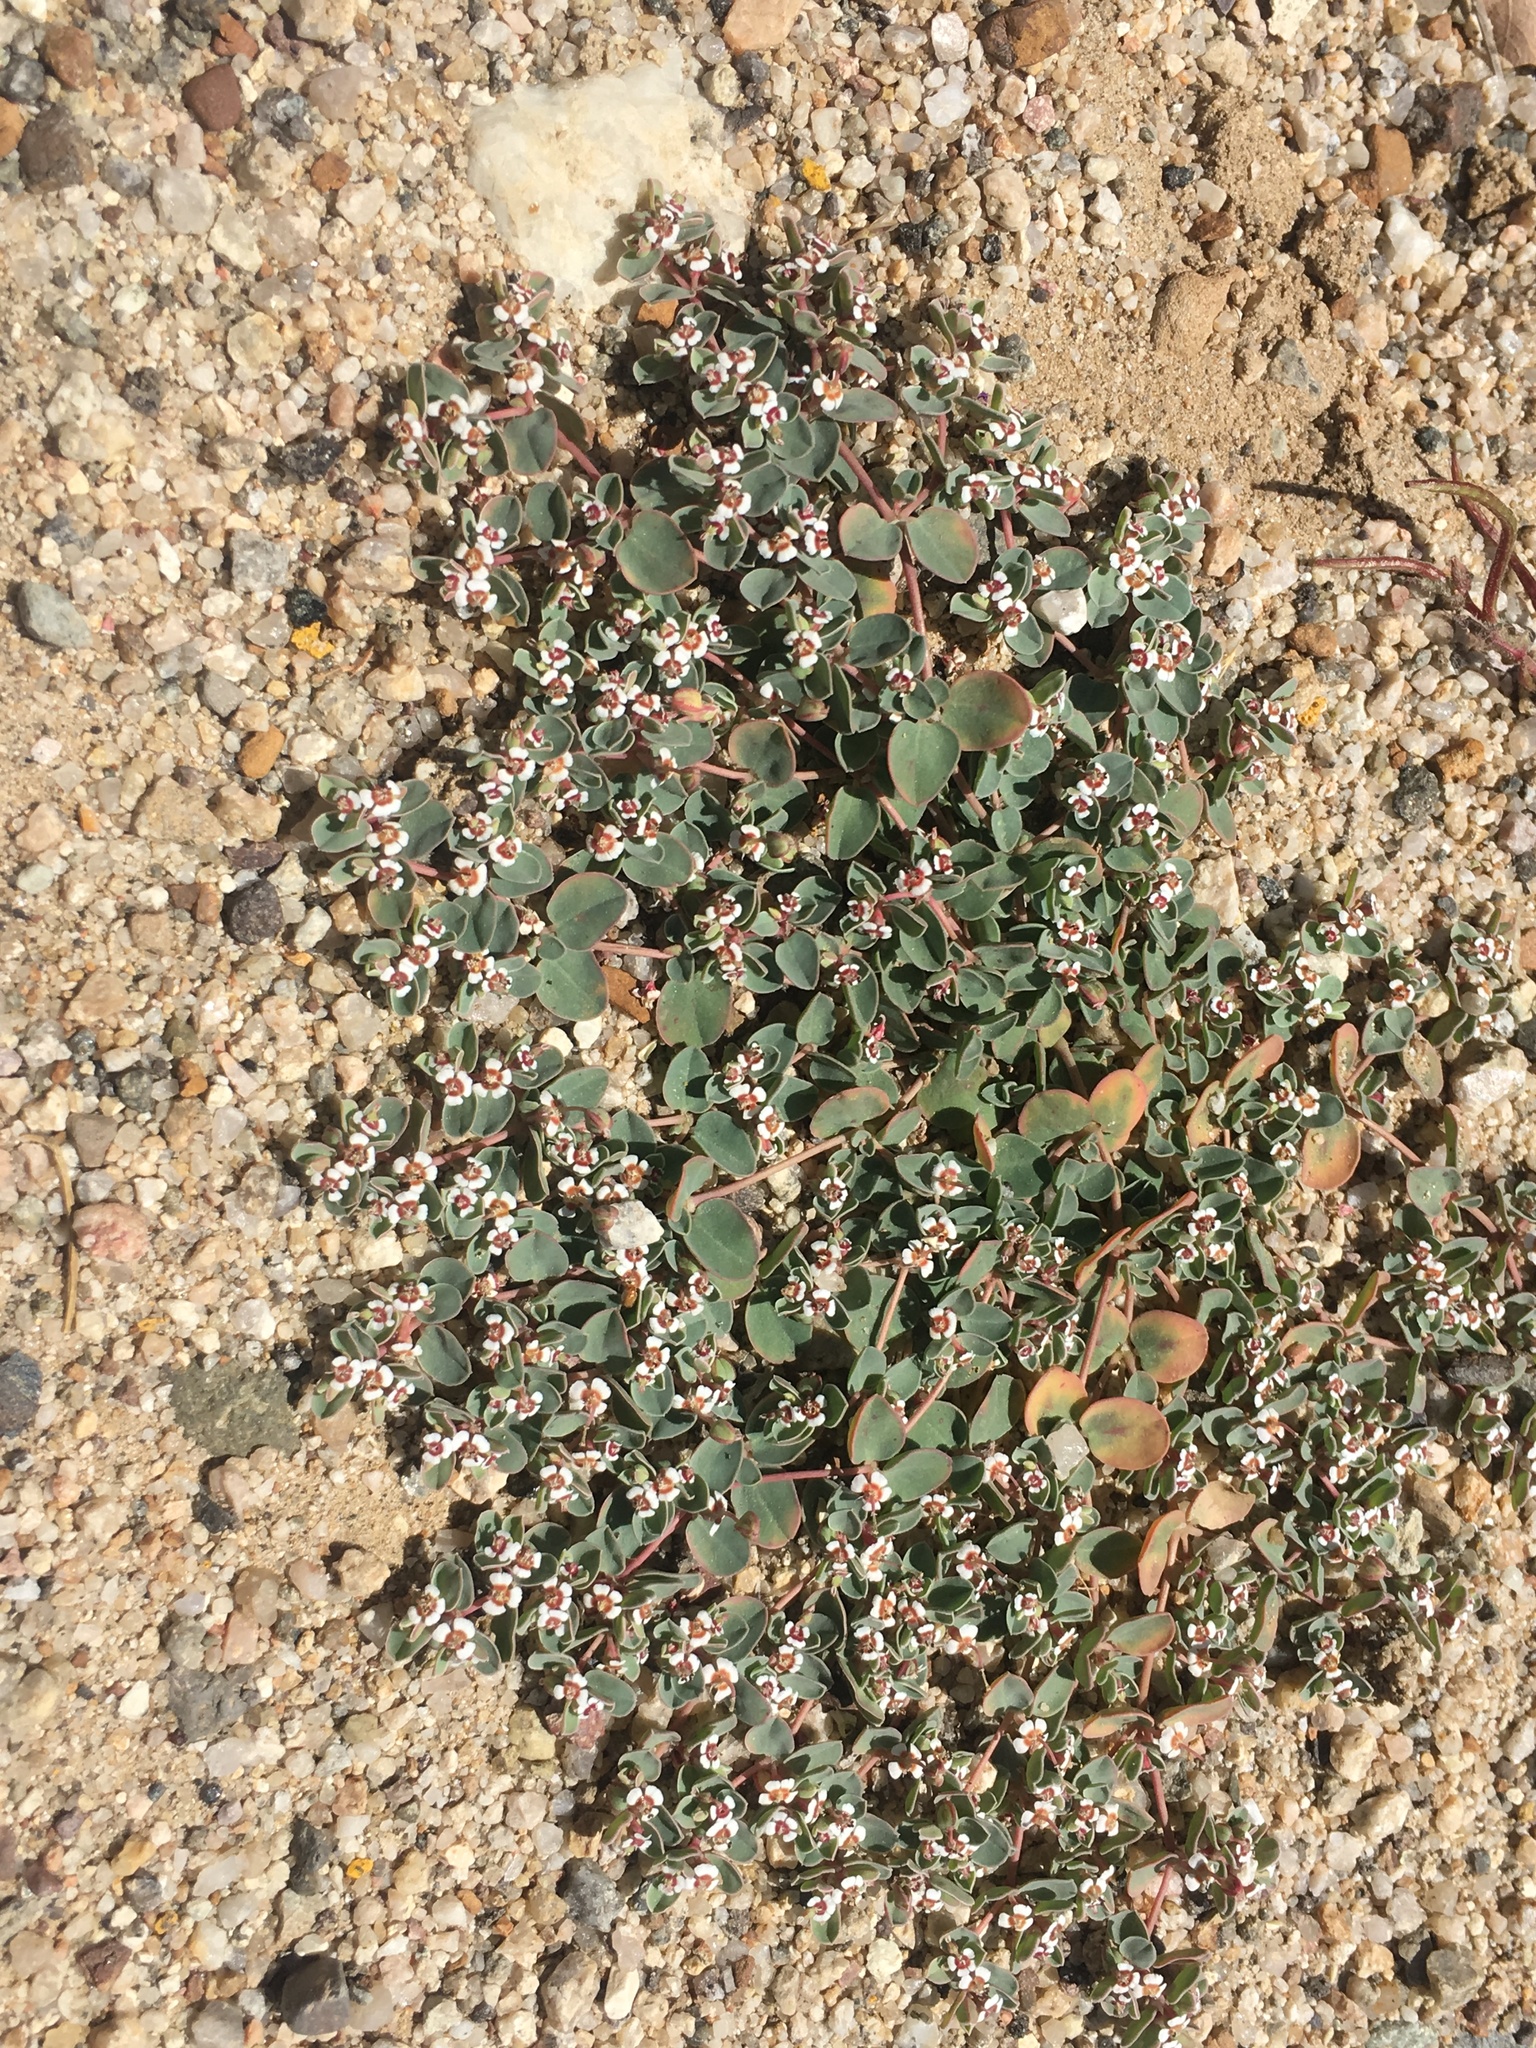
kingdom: Plantae
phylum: Tracheophyta
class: Magnoliopsida
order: Malpighiales
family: Euphorbiaceae
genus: Euphorbia
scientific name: Euphorbia albomarginata
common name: Whitemargin sandmat
